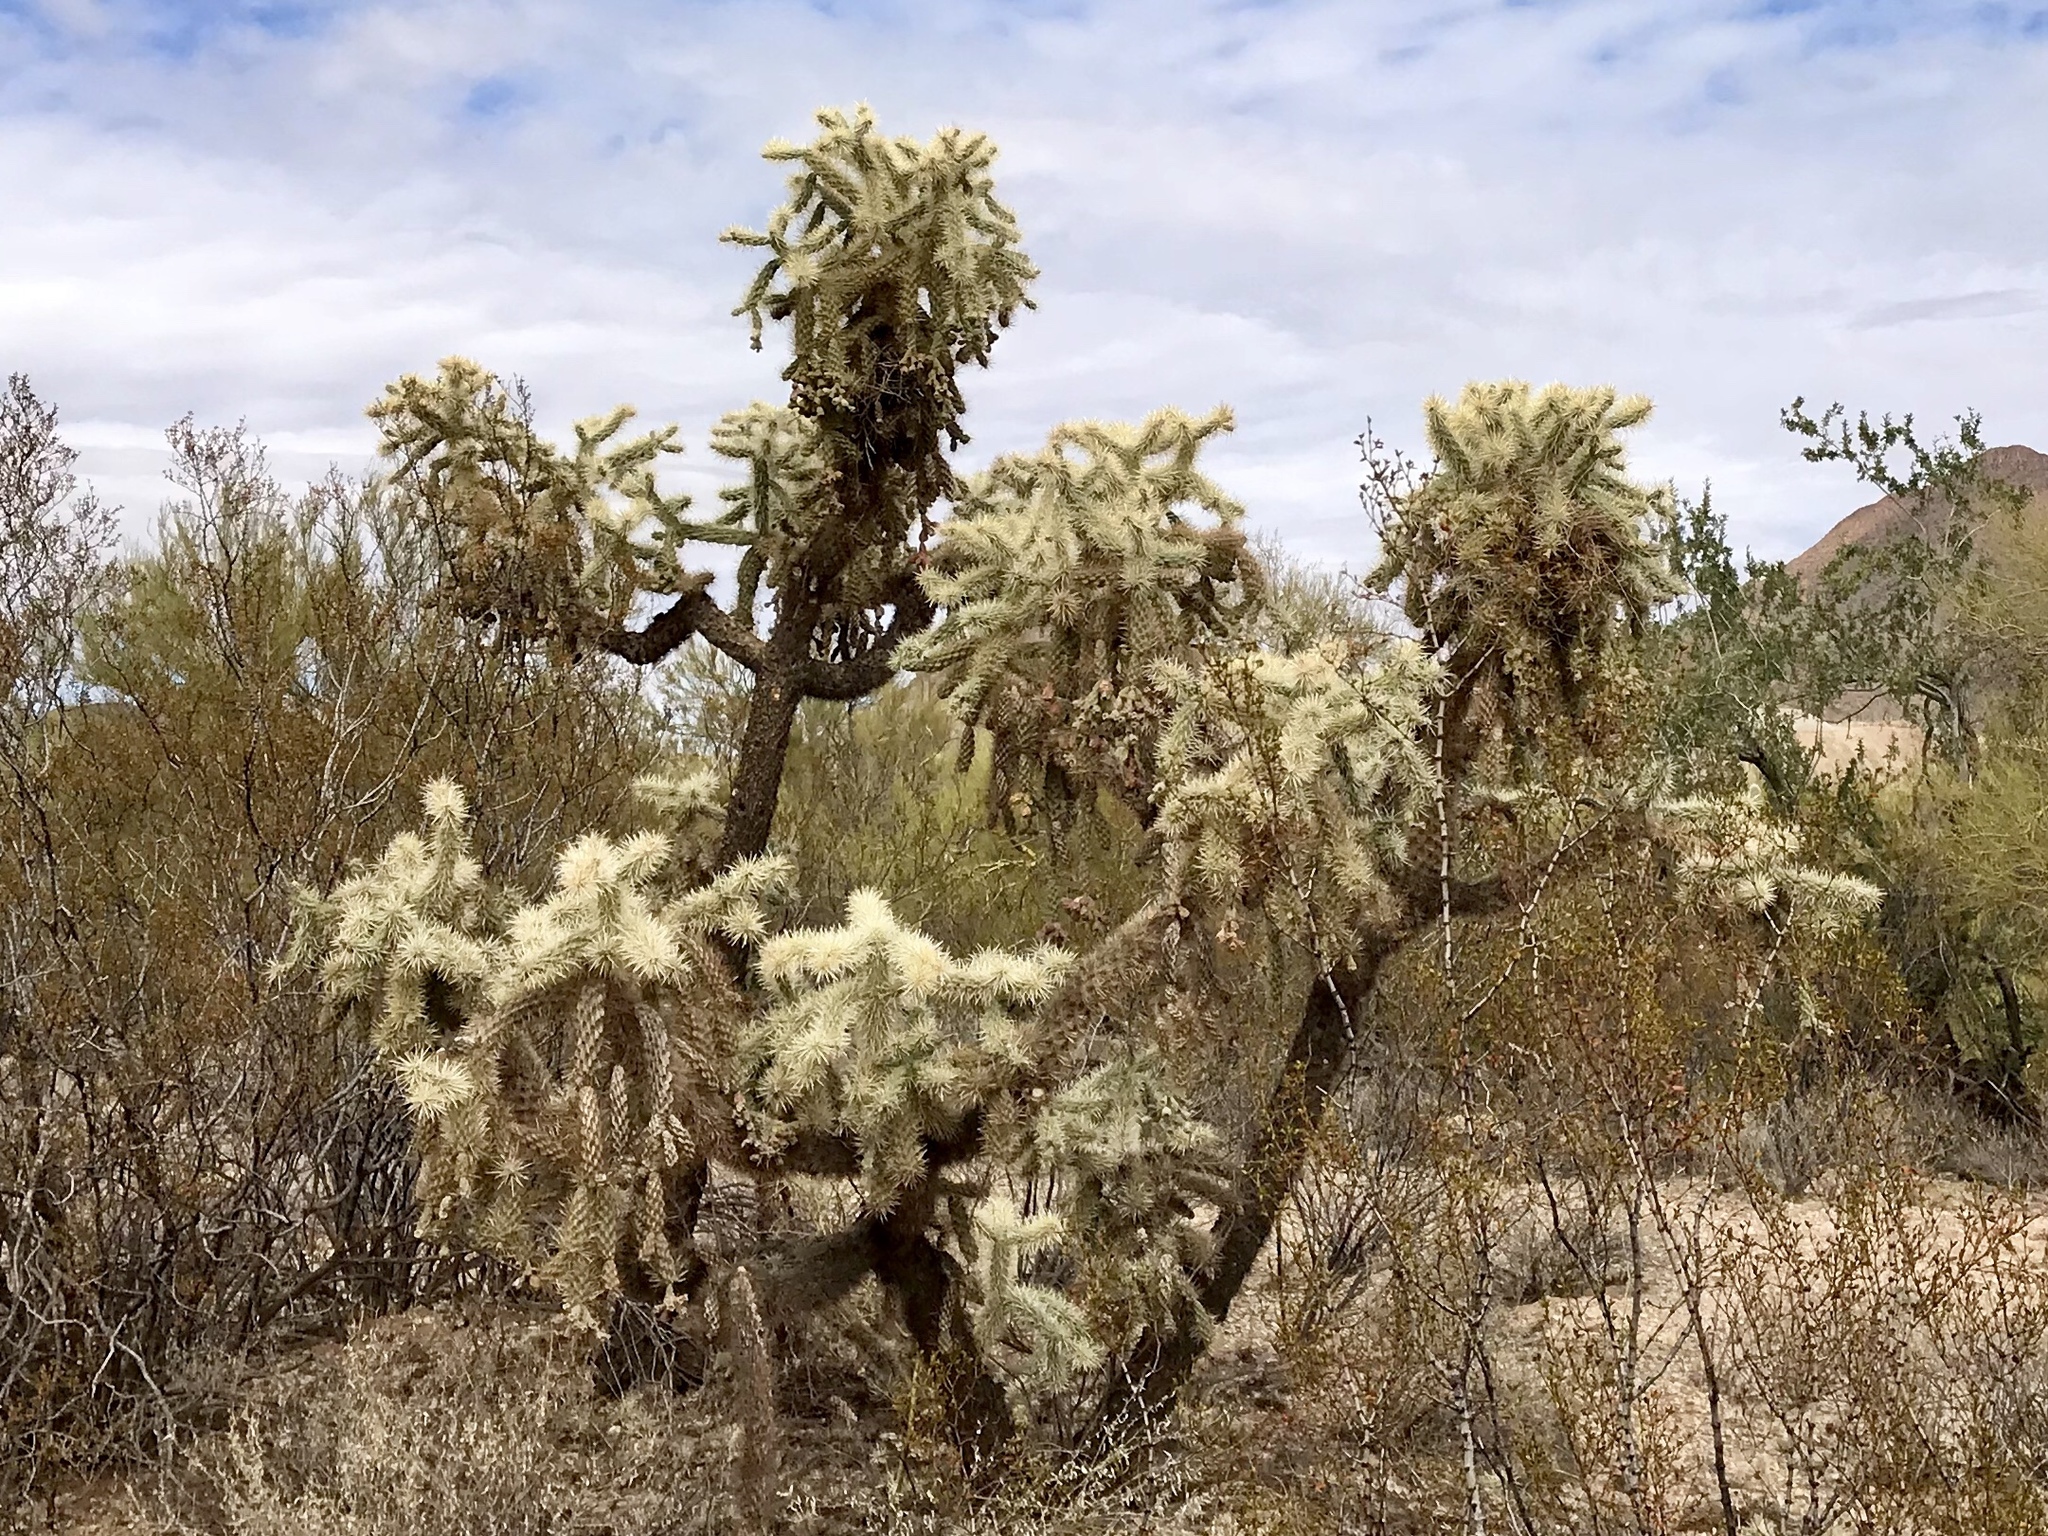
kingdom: Plantae
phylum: Tracheophyta
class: Magnoliopsida
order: Caryophyllales
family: Cactaceae
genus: Cylindropuntia
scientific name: Cylindropuntia fulgida
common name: Jumping cholla
